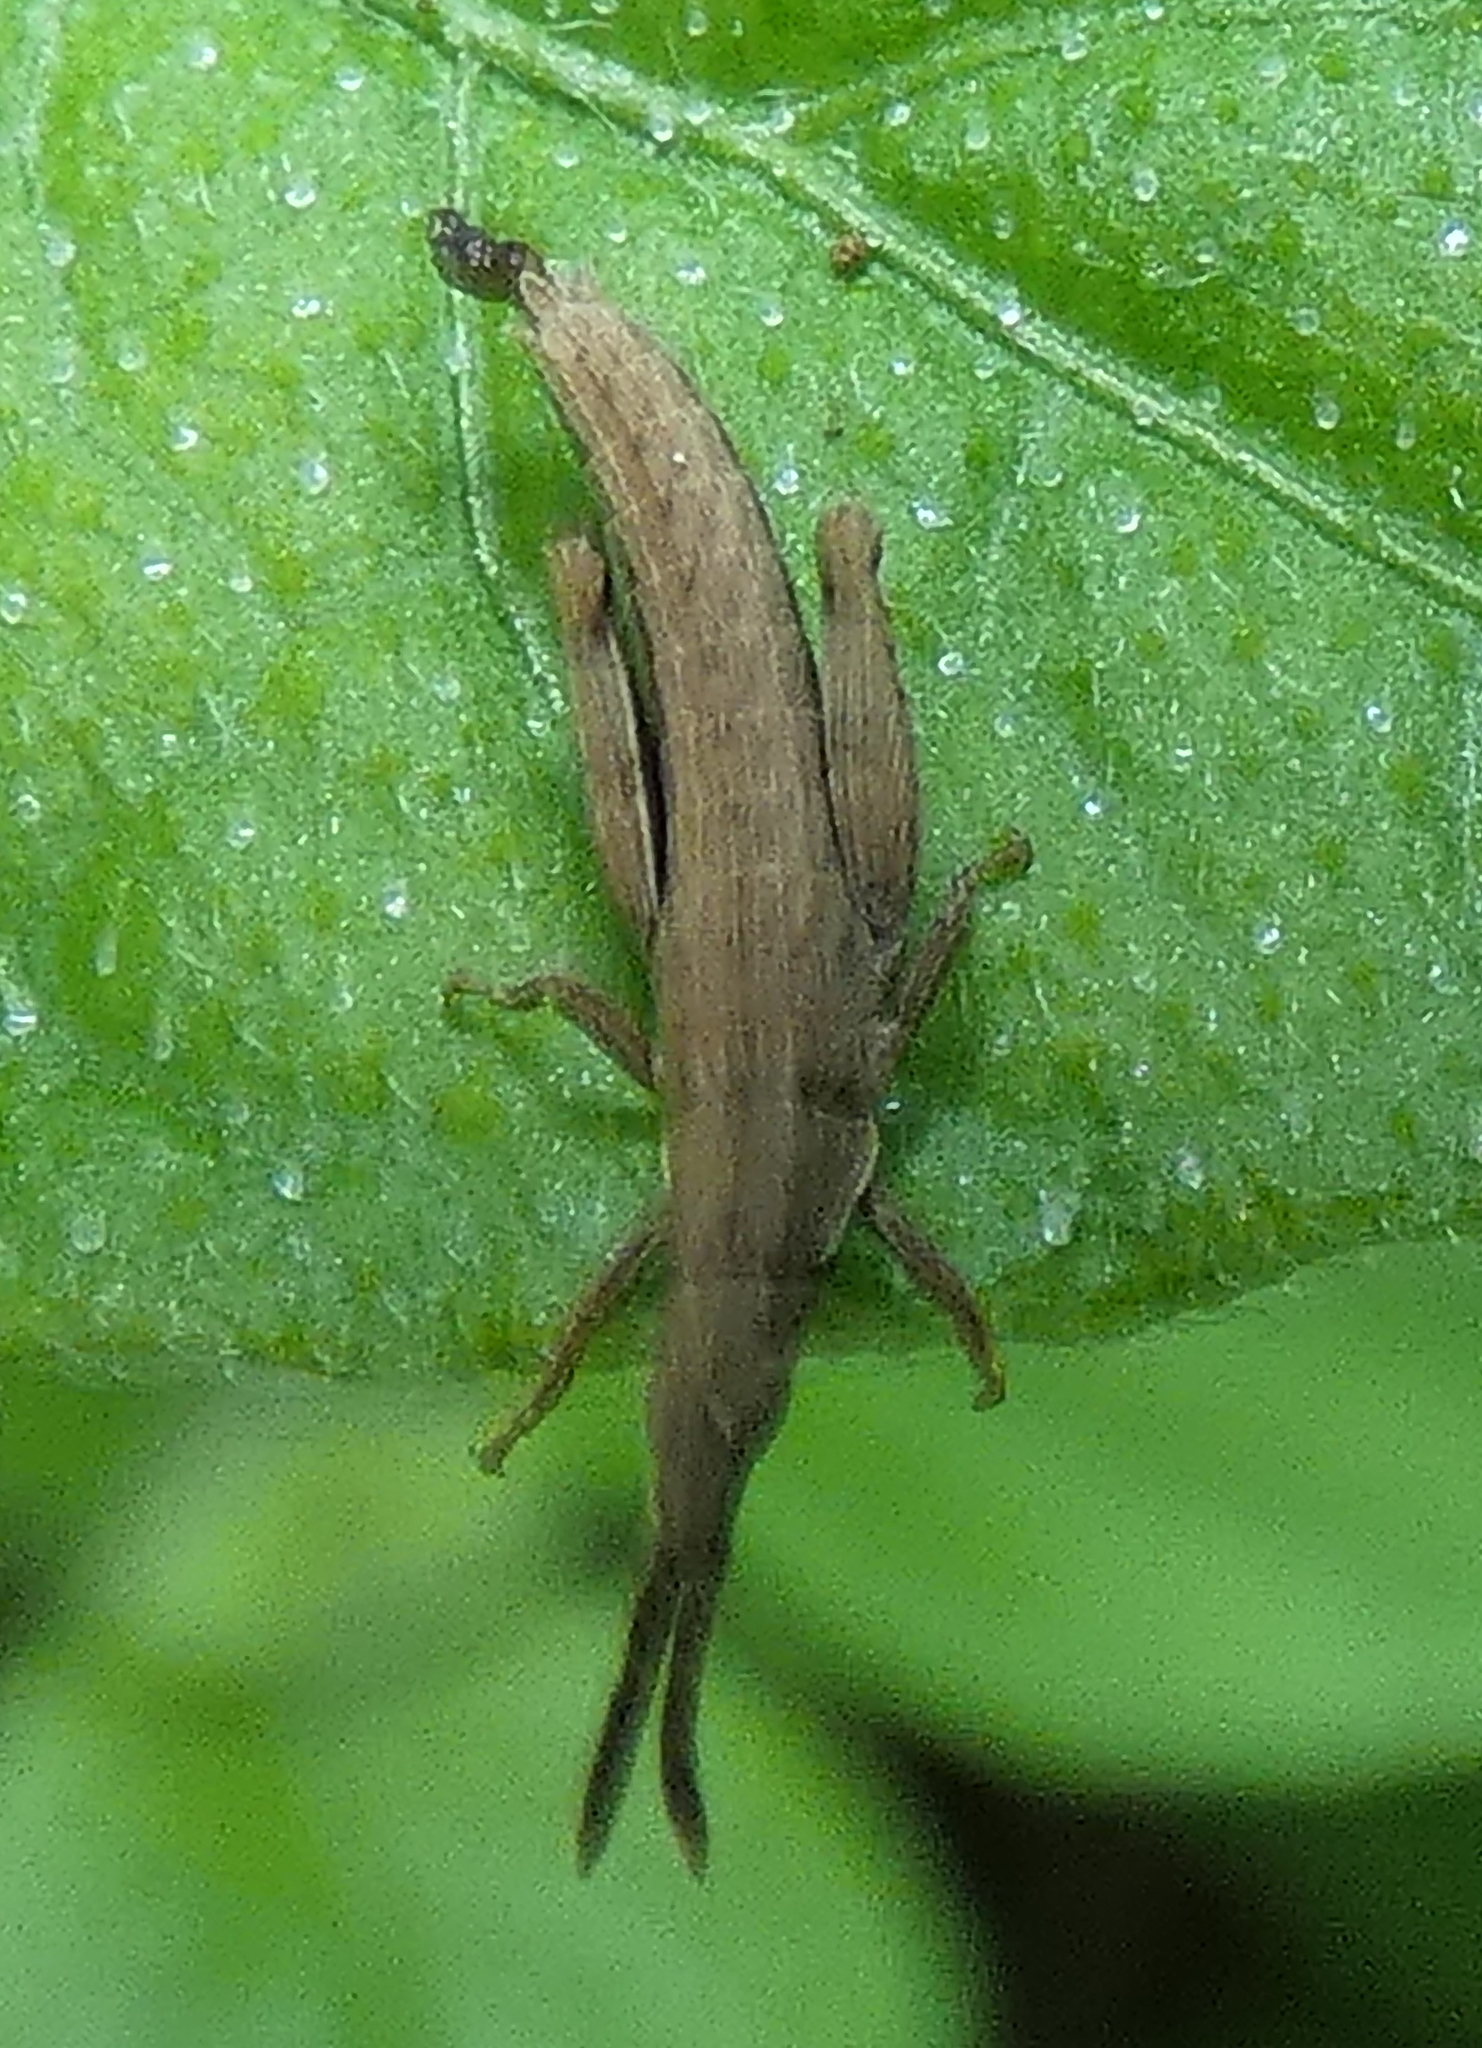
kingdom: Animalia
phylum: Arthropoda
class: Insecta
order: Orthoptera
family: Pyrgomorphidae
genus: Algete
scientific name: Algete brunneri
